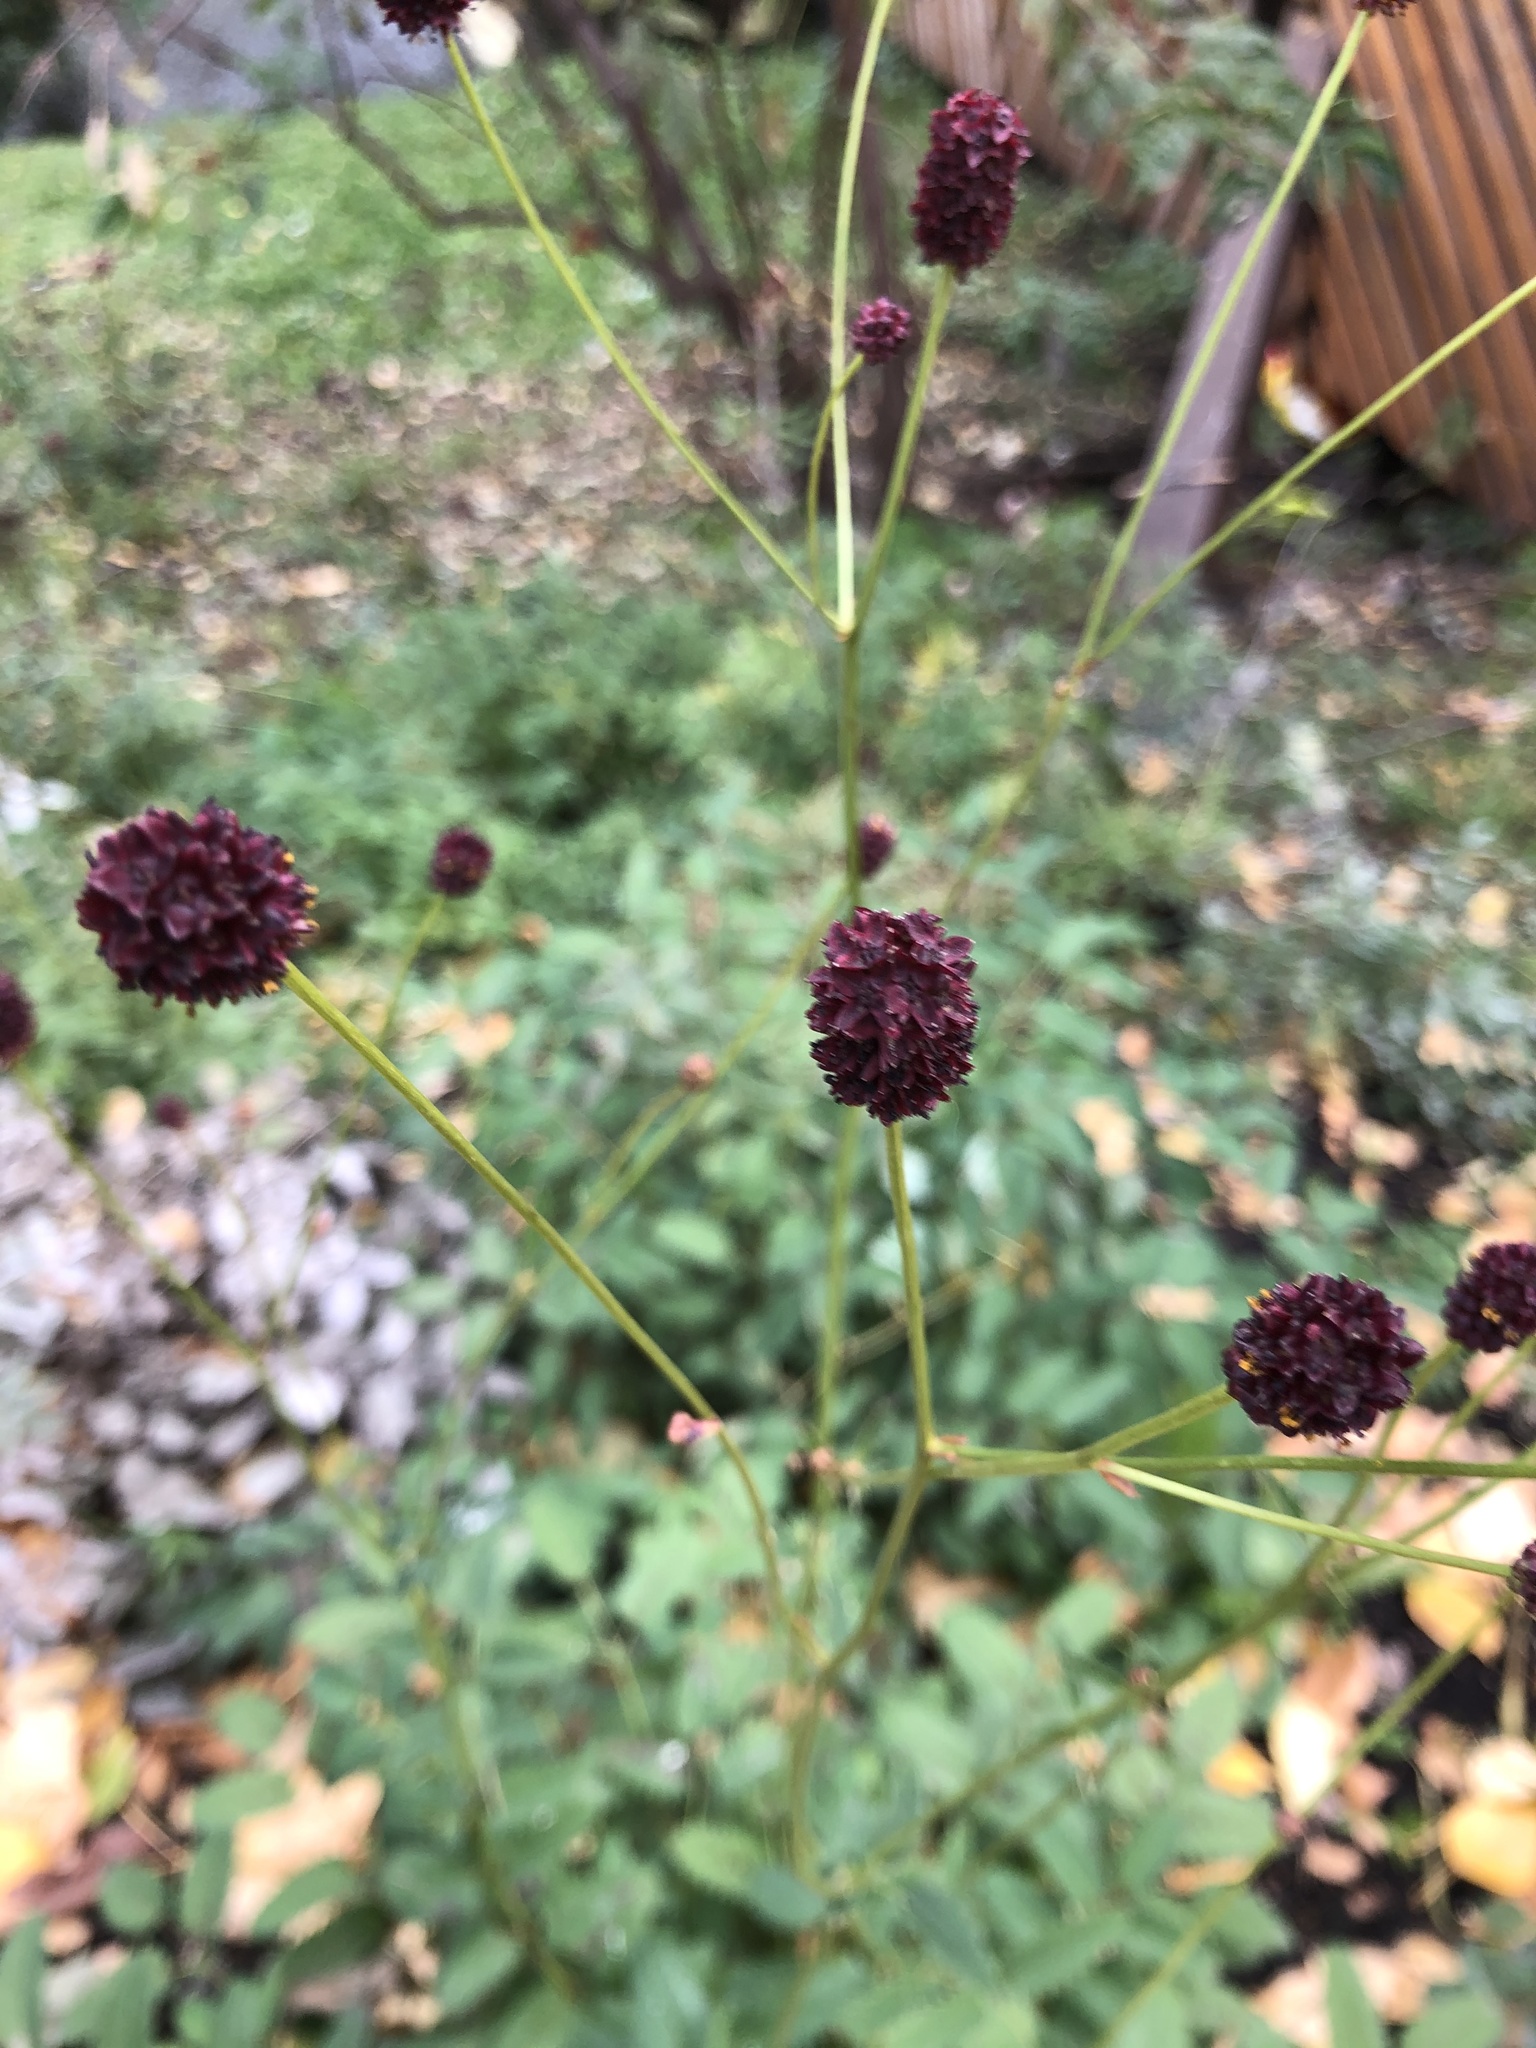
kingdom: Plantae
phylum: Tracheophyta
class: Magnoliopsida
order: Rosales
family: Rosaceae
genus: Sanguisorba
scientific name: Sanguisorba officinalis
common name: Great burnet
